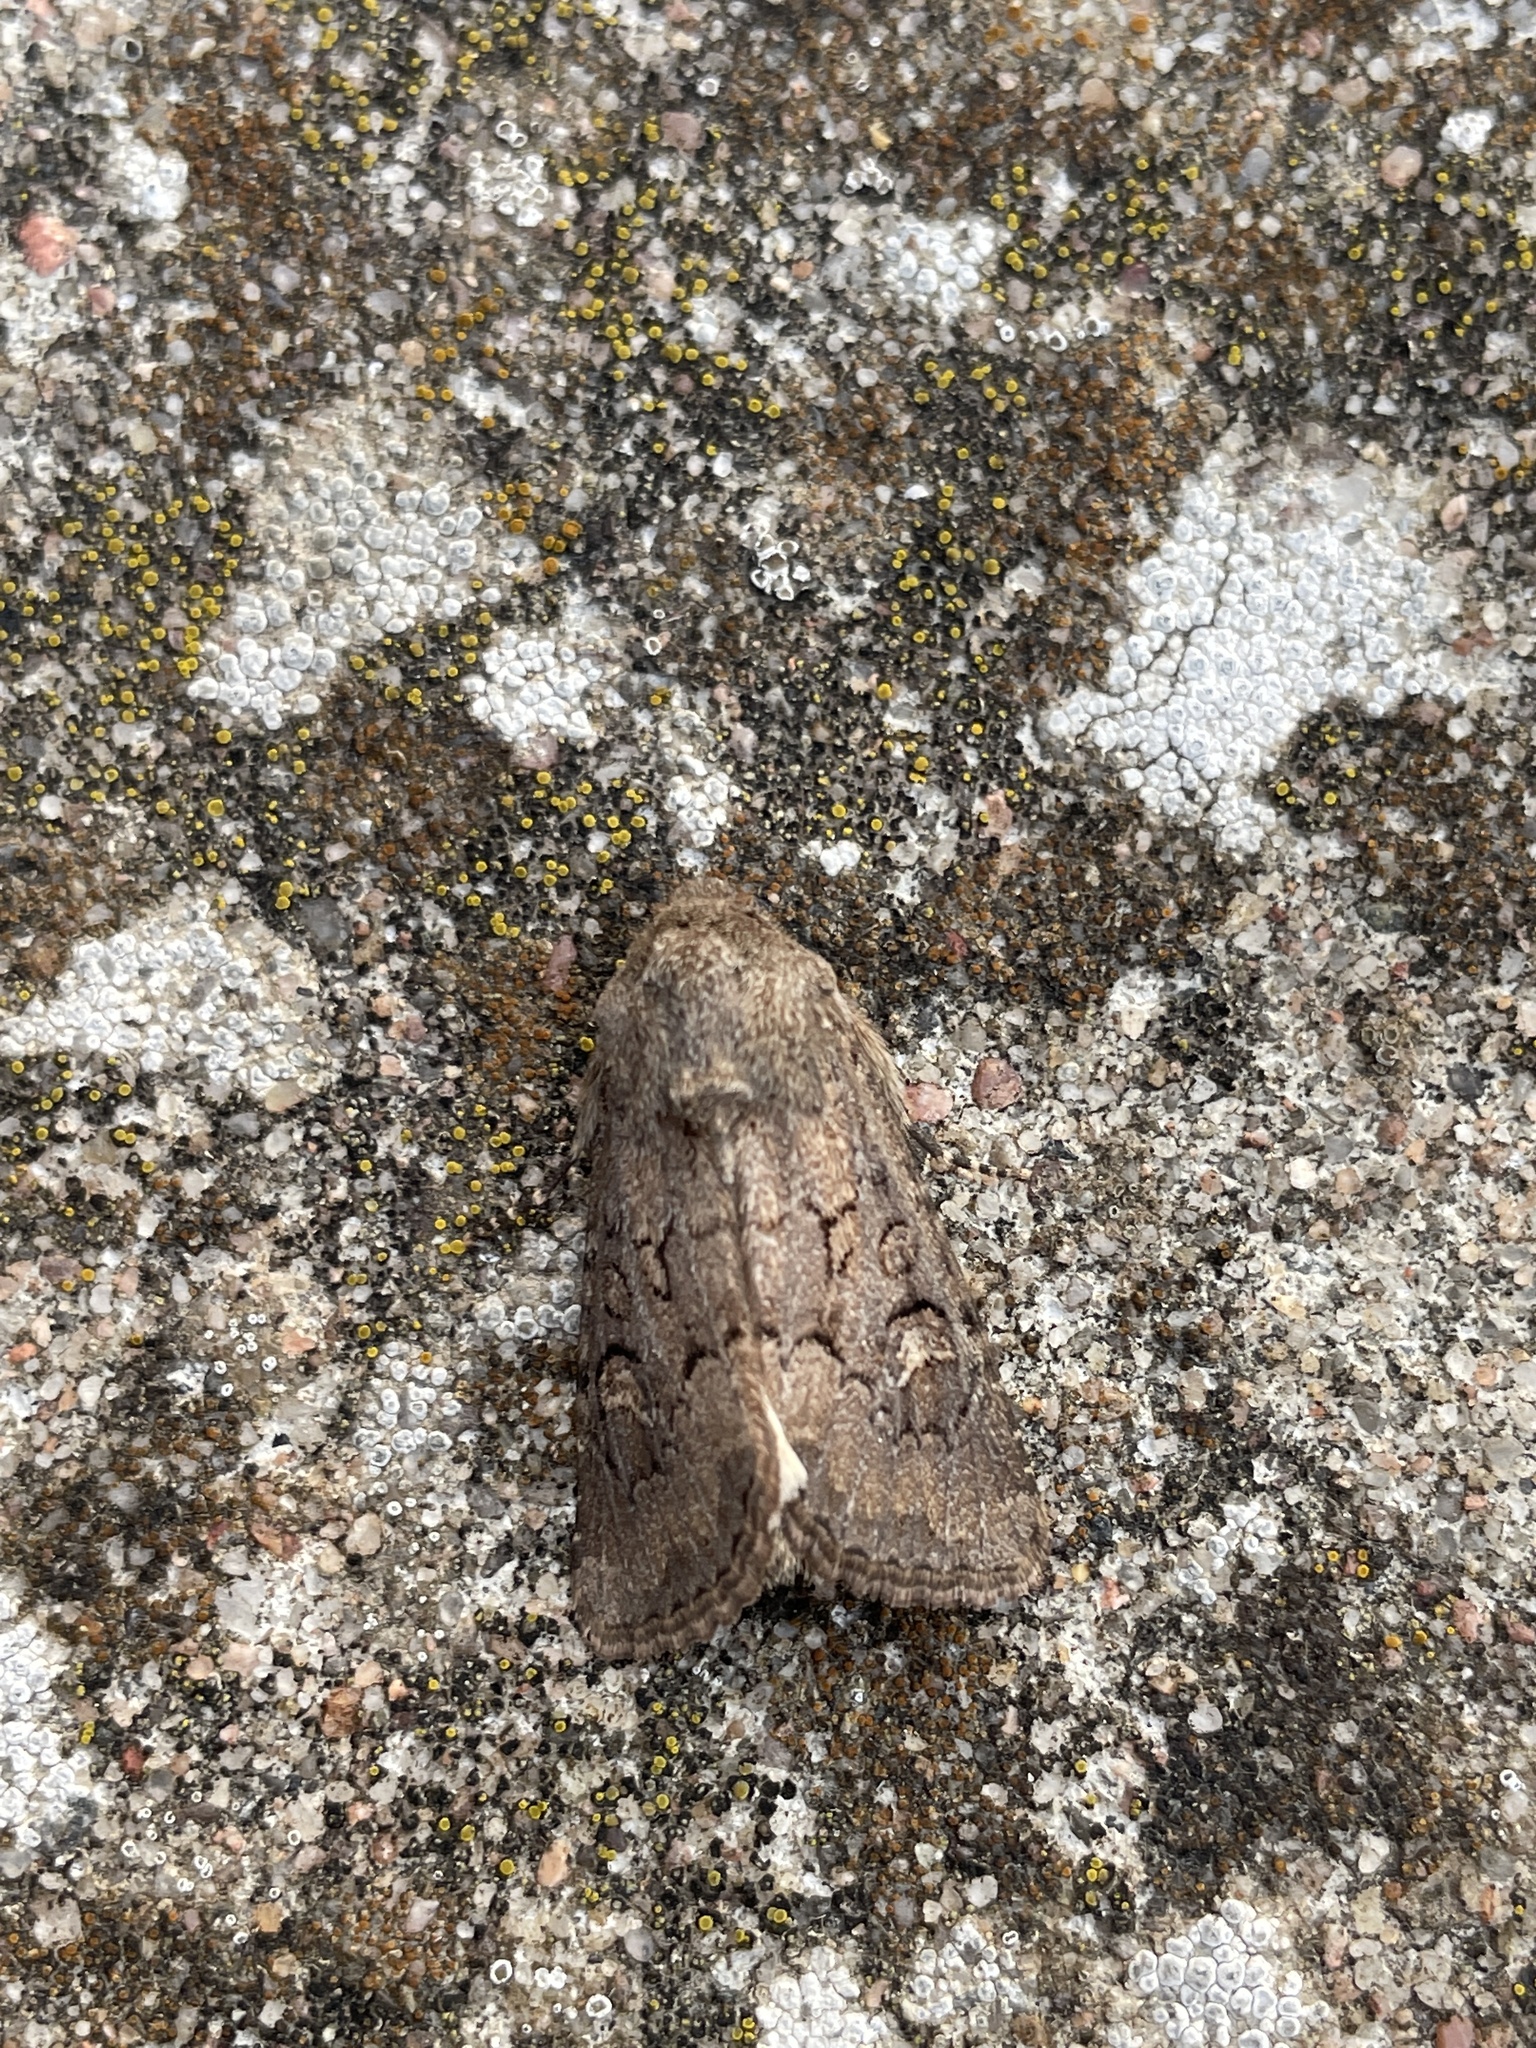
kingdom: Animalia
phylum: Arthropoda
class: Insecta
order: Lepidoptera
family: Noctuidae
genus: Luperina
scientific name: Luperina testacea
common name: Flounced rustic
